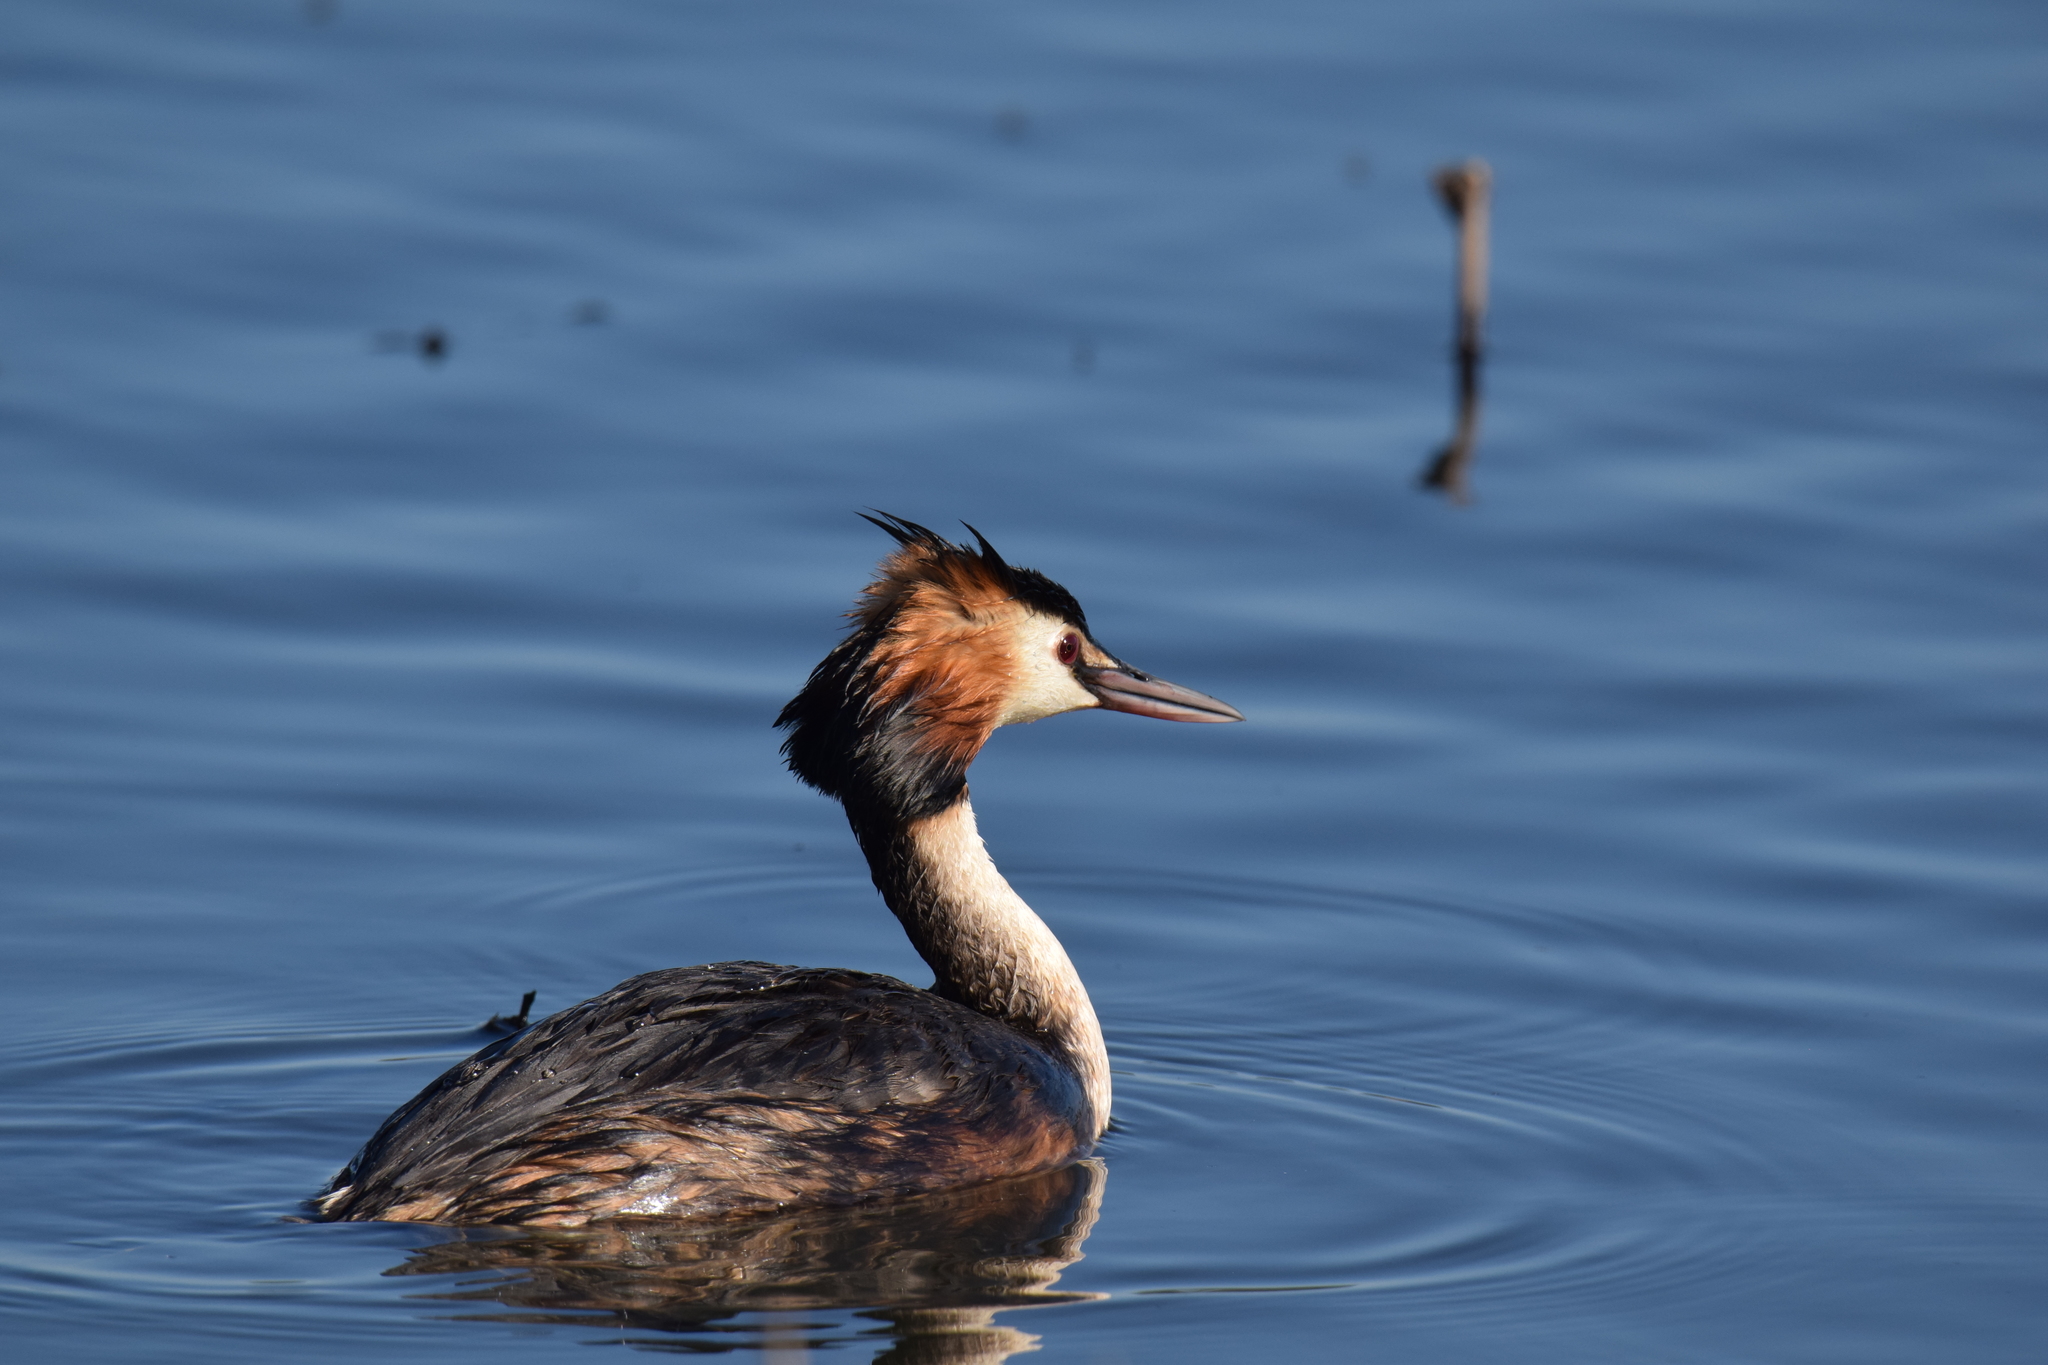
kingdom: Animalia
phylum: Chordata
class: Aves
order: Podicipediformes
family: Podicipedidae
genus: Podiceps
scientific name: Podiceps cristatus
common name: Great crested grebe
